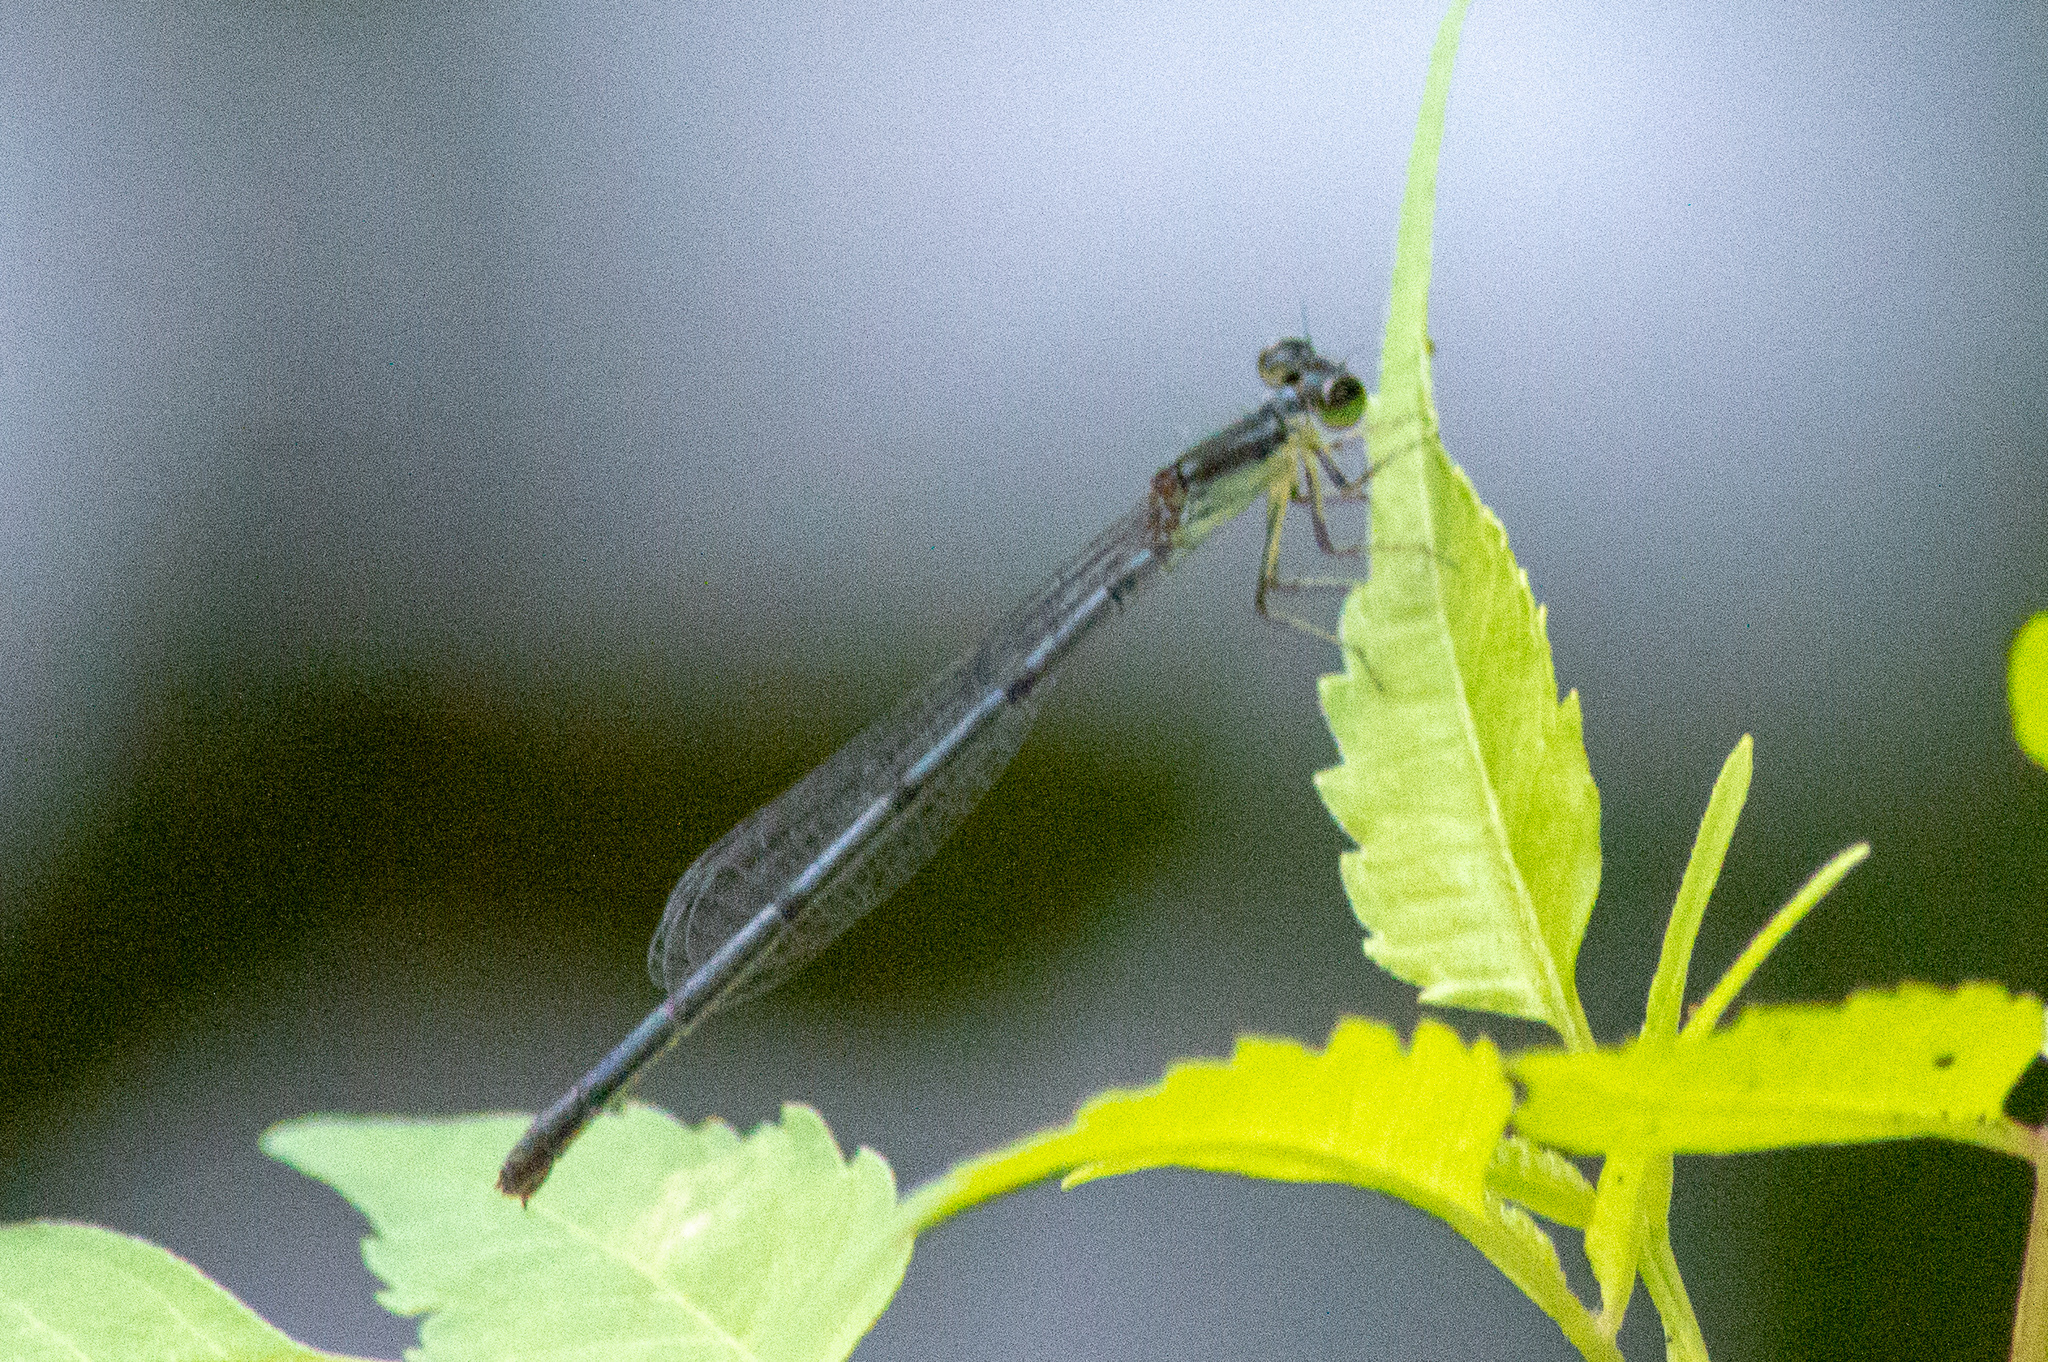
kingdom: Animalia
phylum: Arthropoda
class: Insecta
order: Odonata
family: Coenagrionidae
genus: Ischnura
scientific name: Ischnura posita
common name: Fragile forktail
